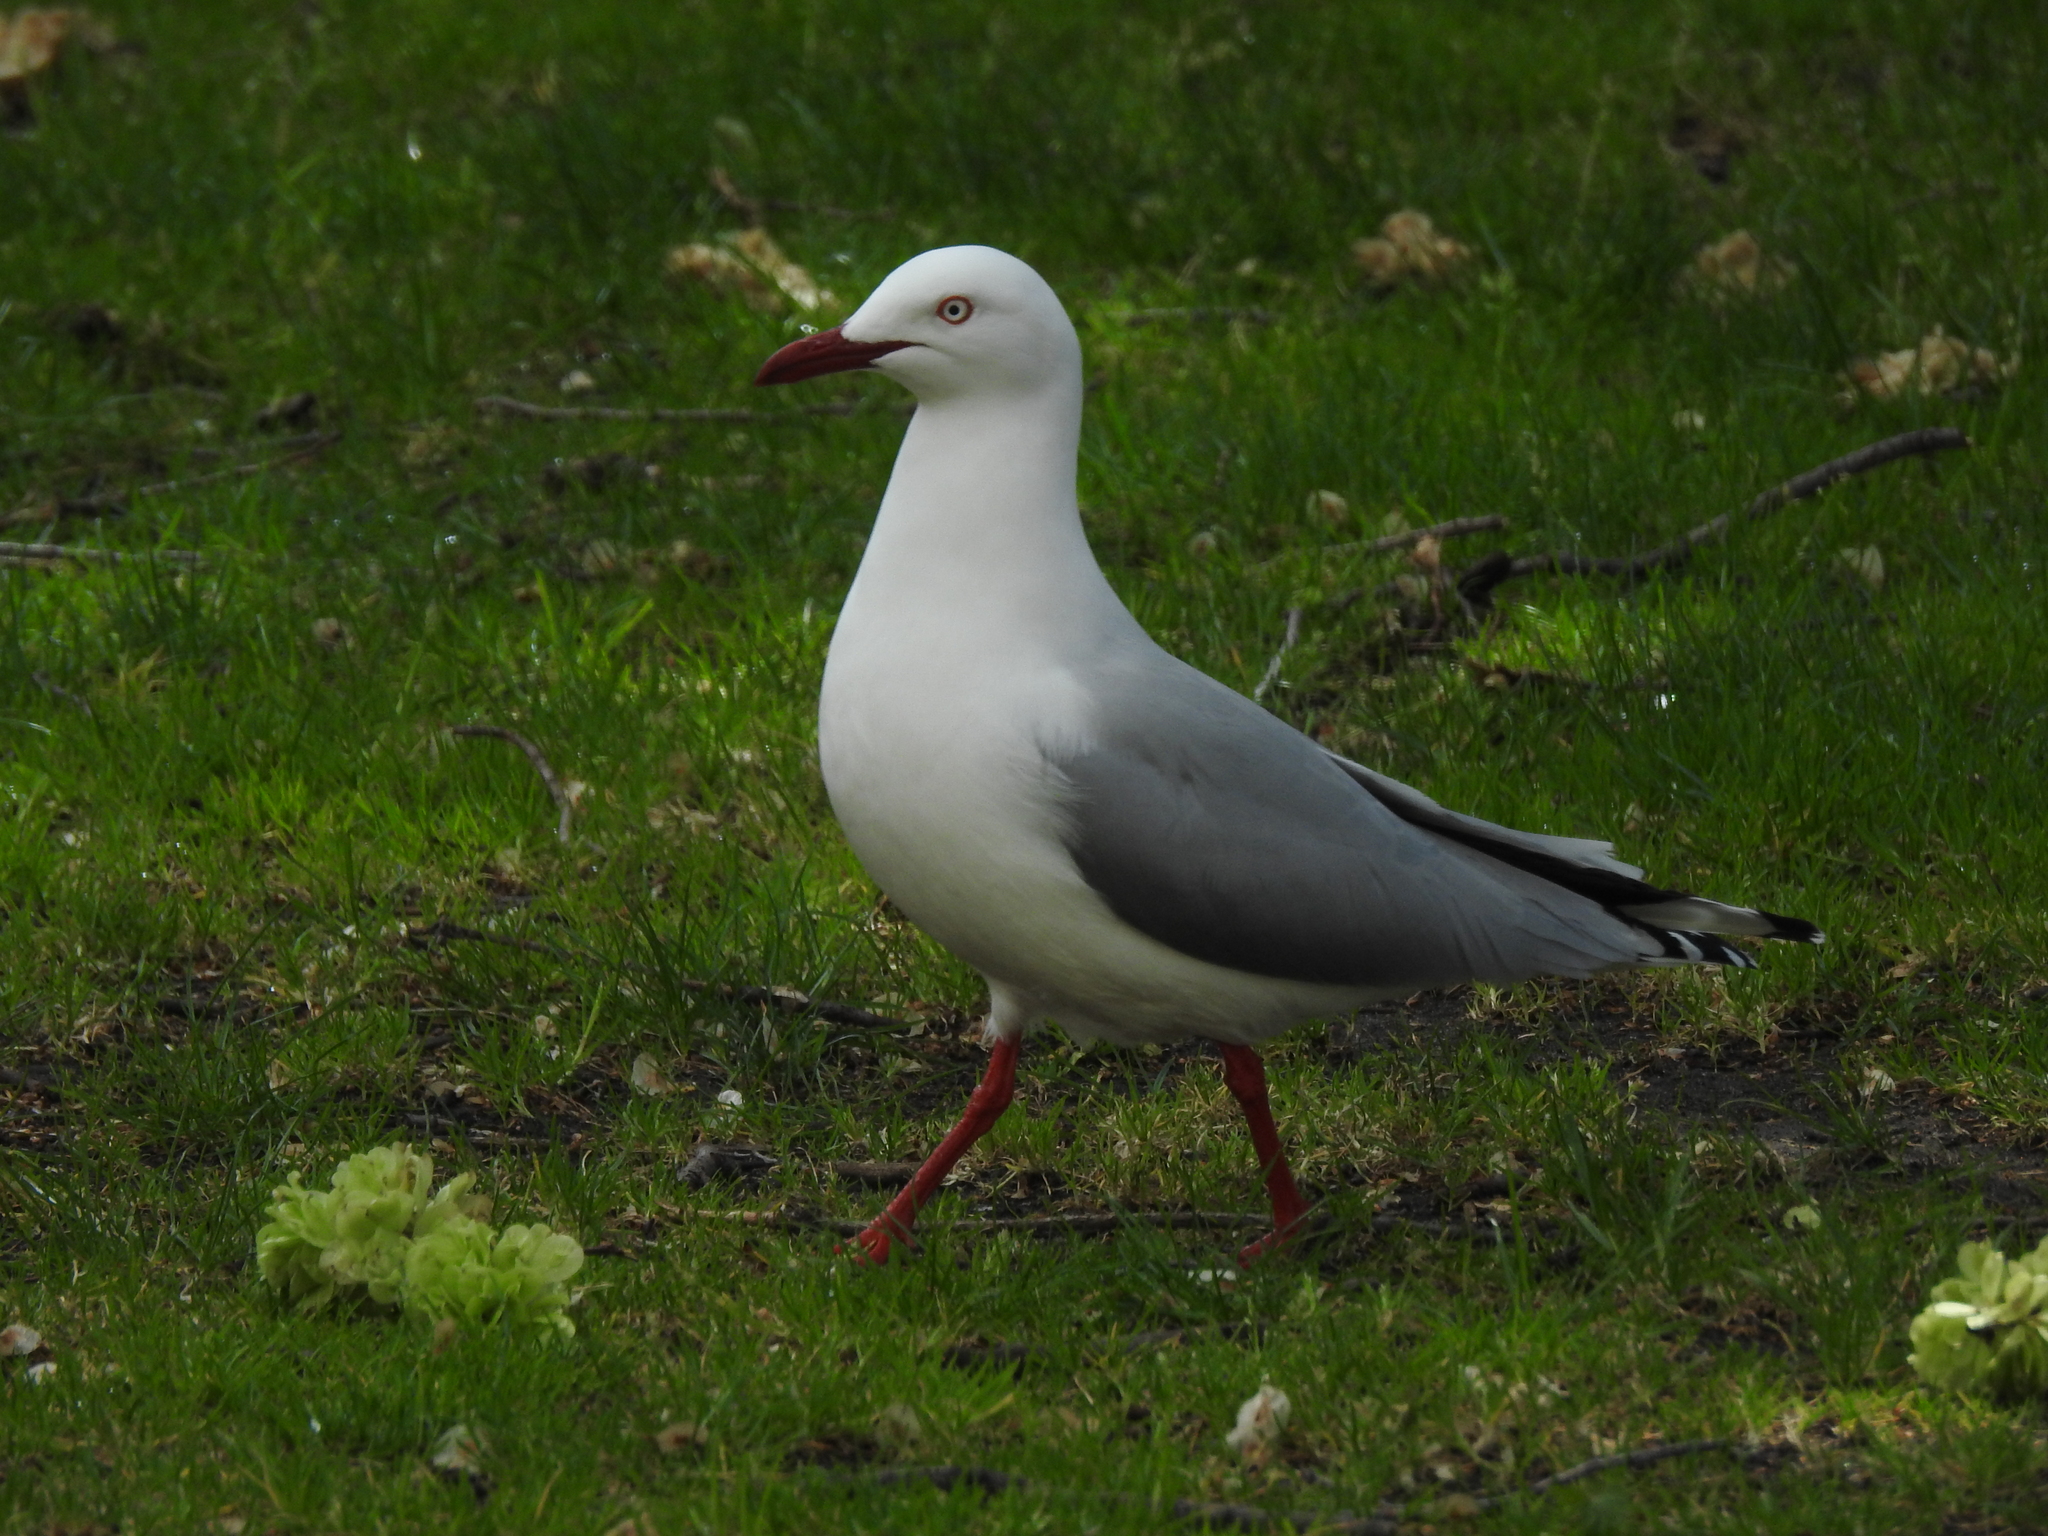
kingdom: Animalia
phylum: Chordata
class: Aves
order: Charadriiformes
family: Laridae
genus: Chroicocephalus
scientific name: Chroicocephalus novaehollandiae
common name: Silver gull
